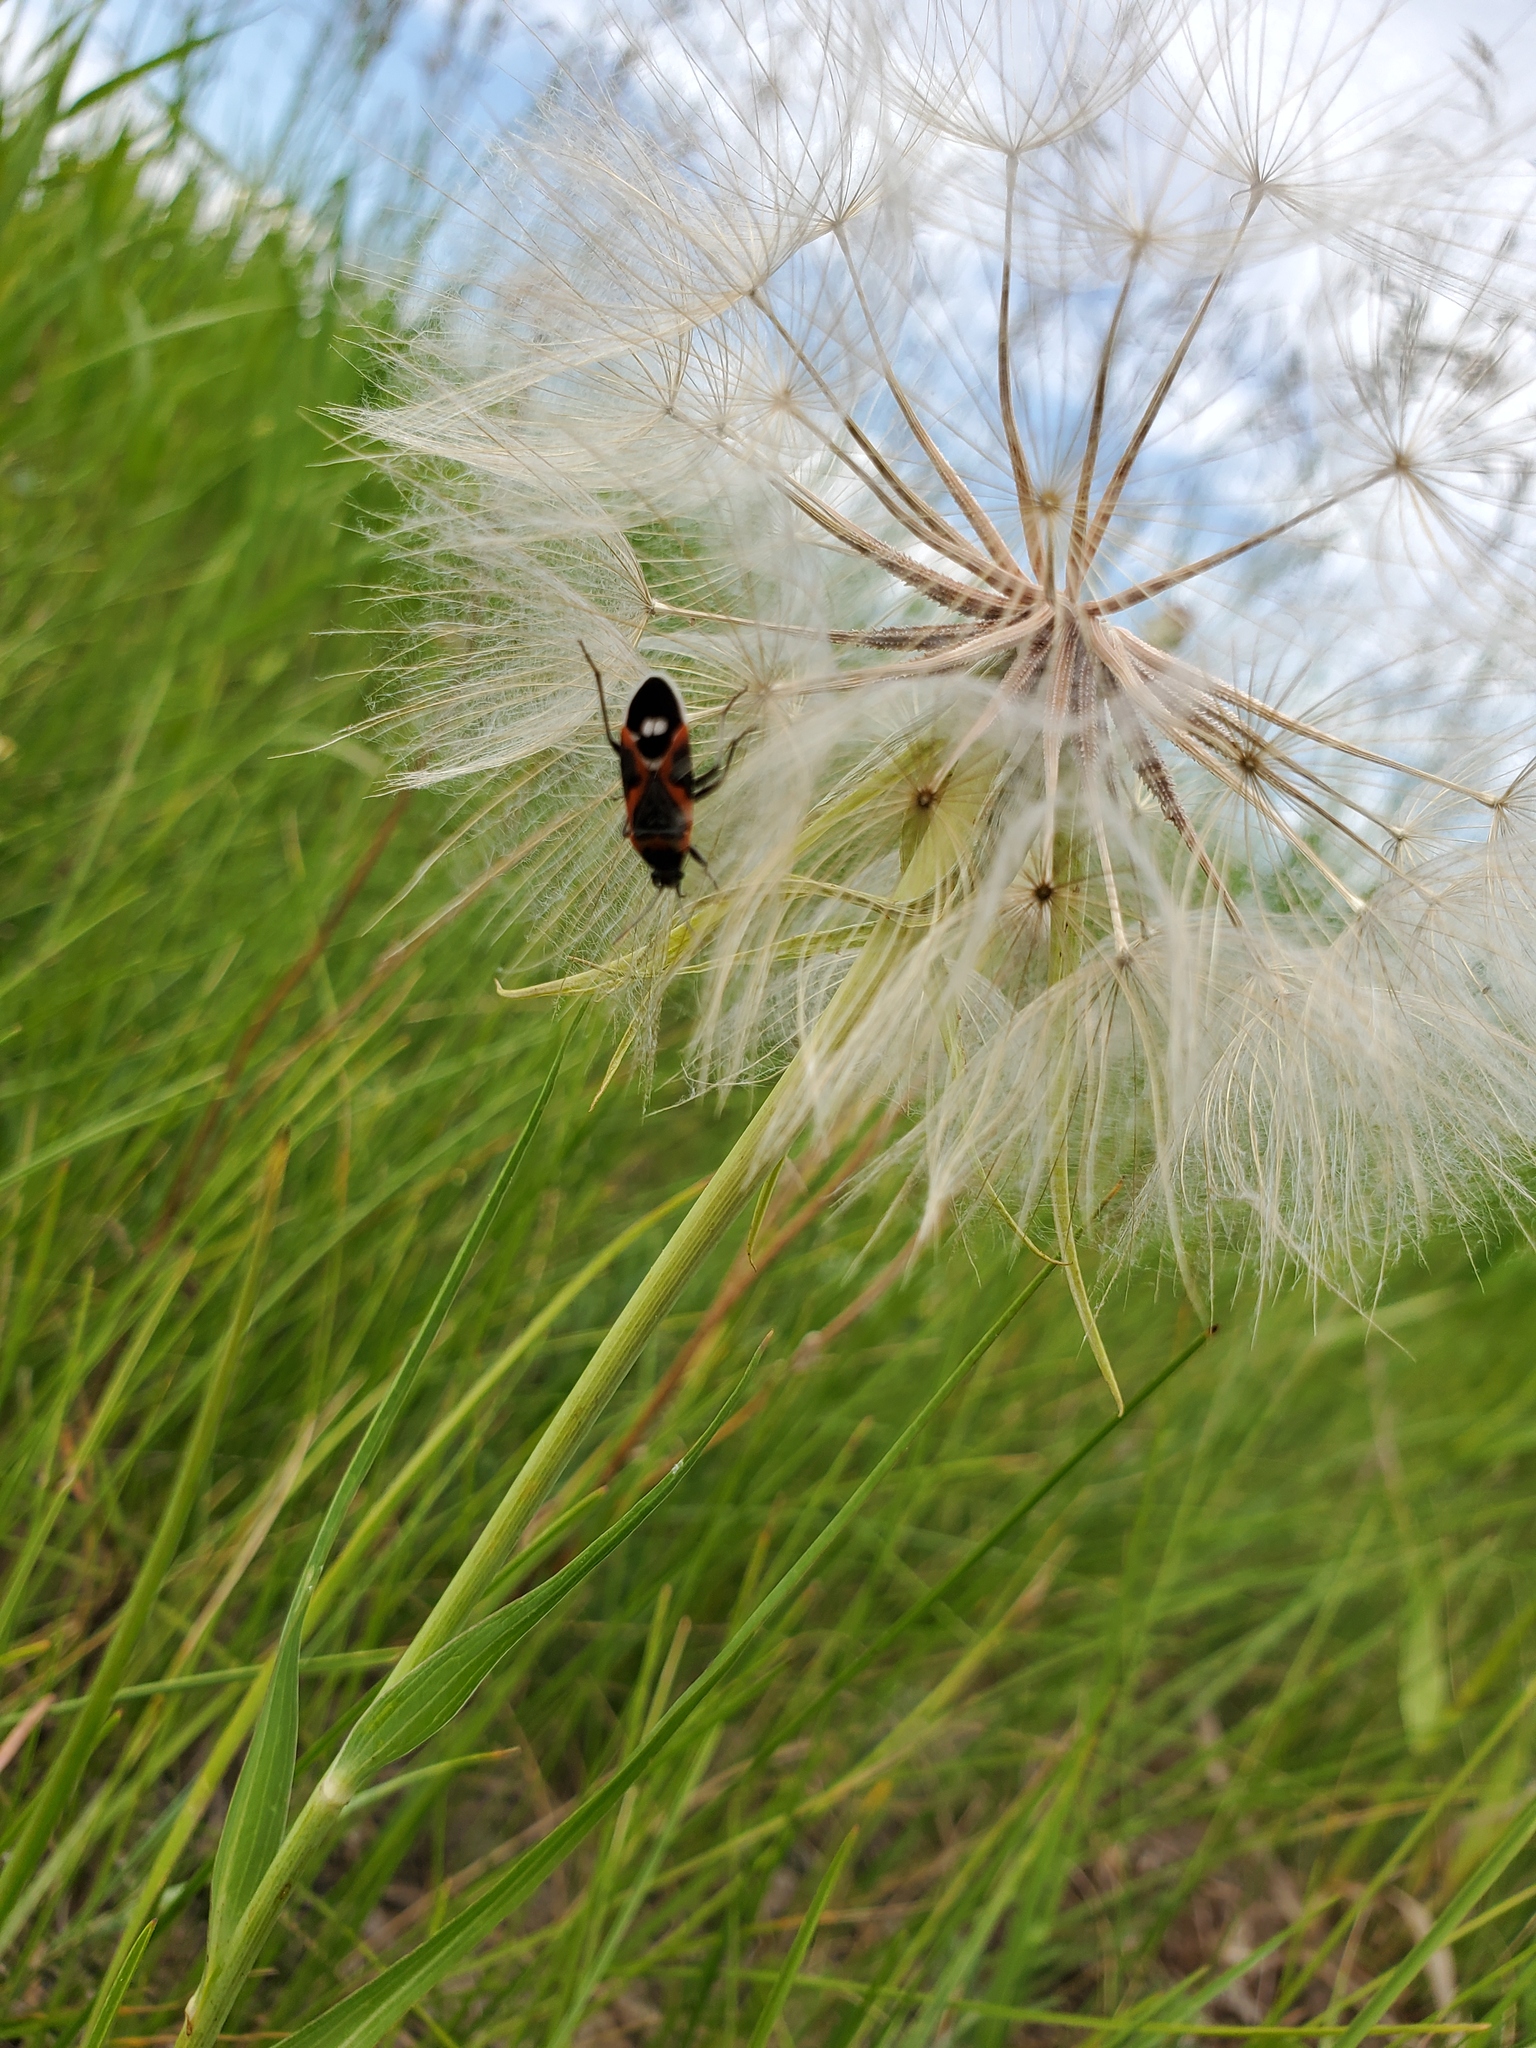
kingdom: Animalia
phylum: Arthropoda
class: Insecta
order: Hemiptera
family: Lygaeidae
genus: Lygaeus
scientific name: Lygaeus kalmii
